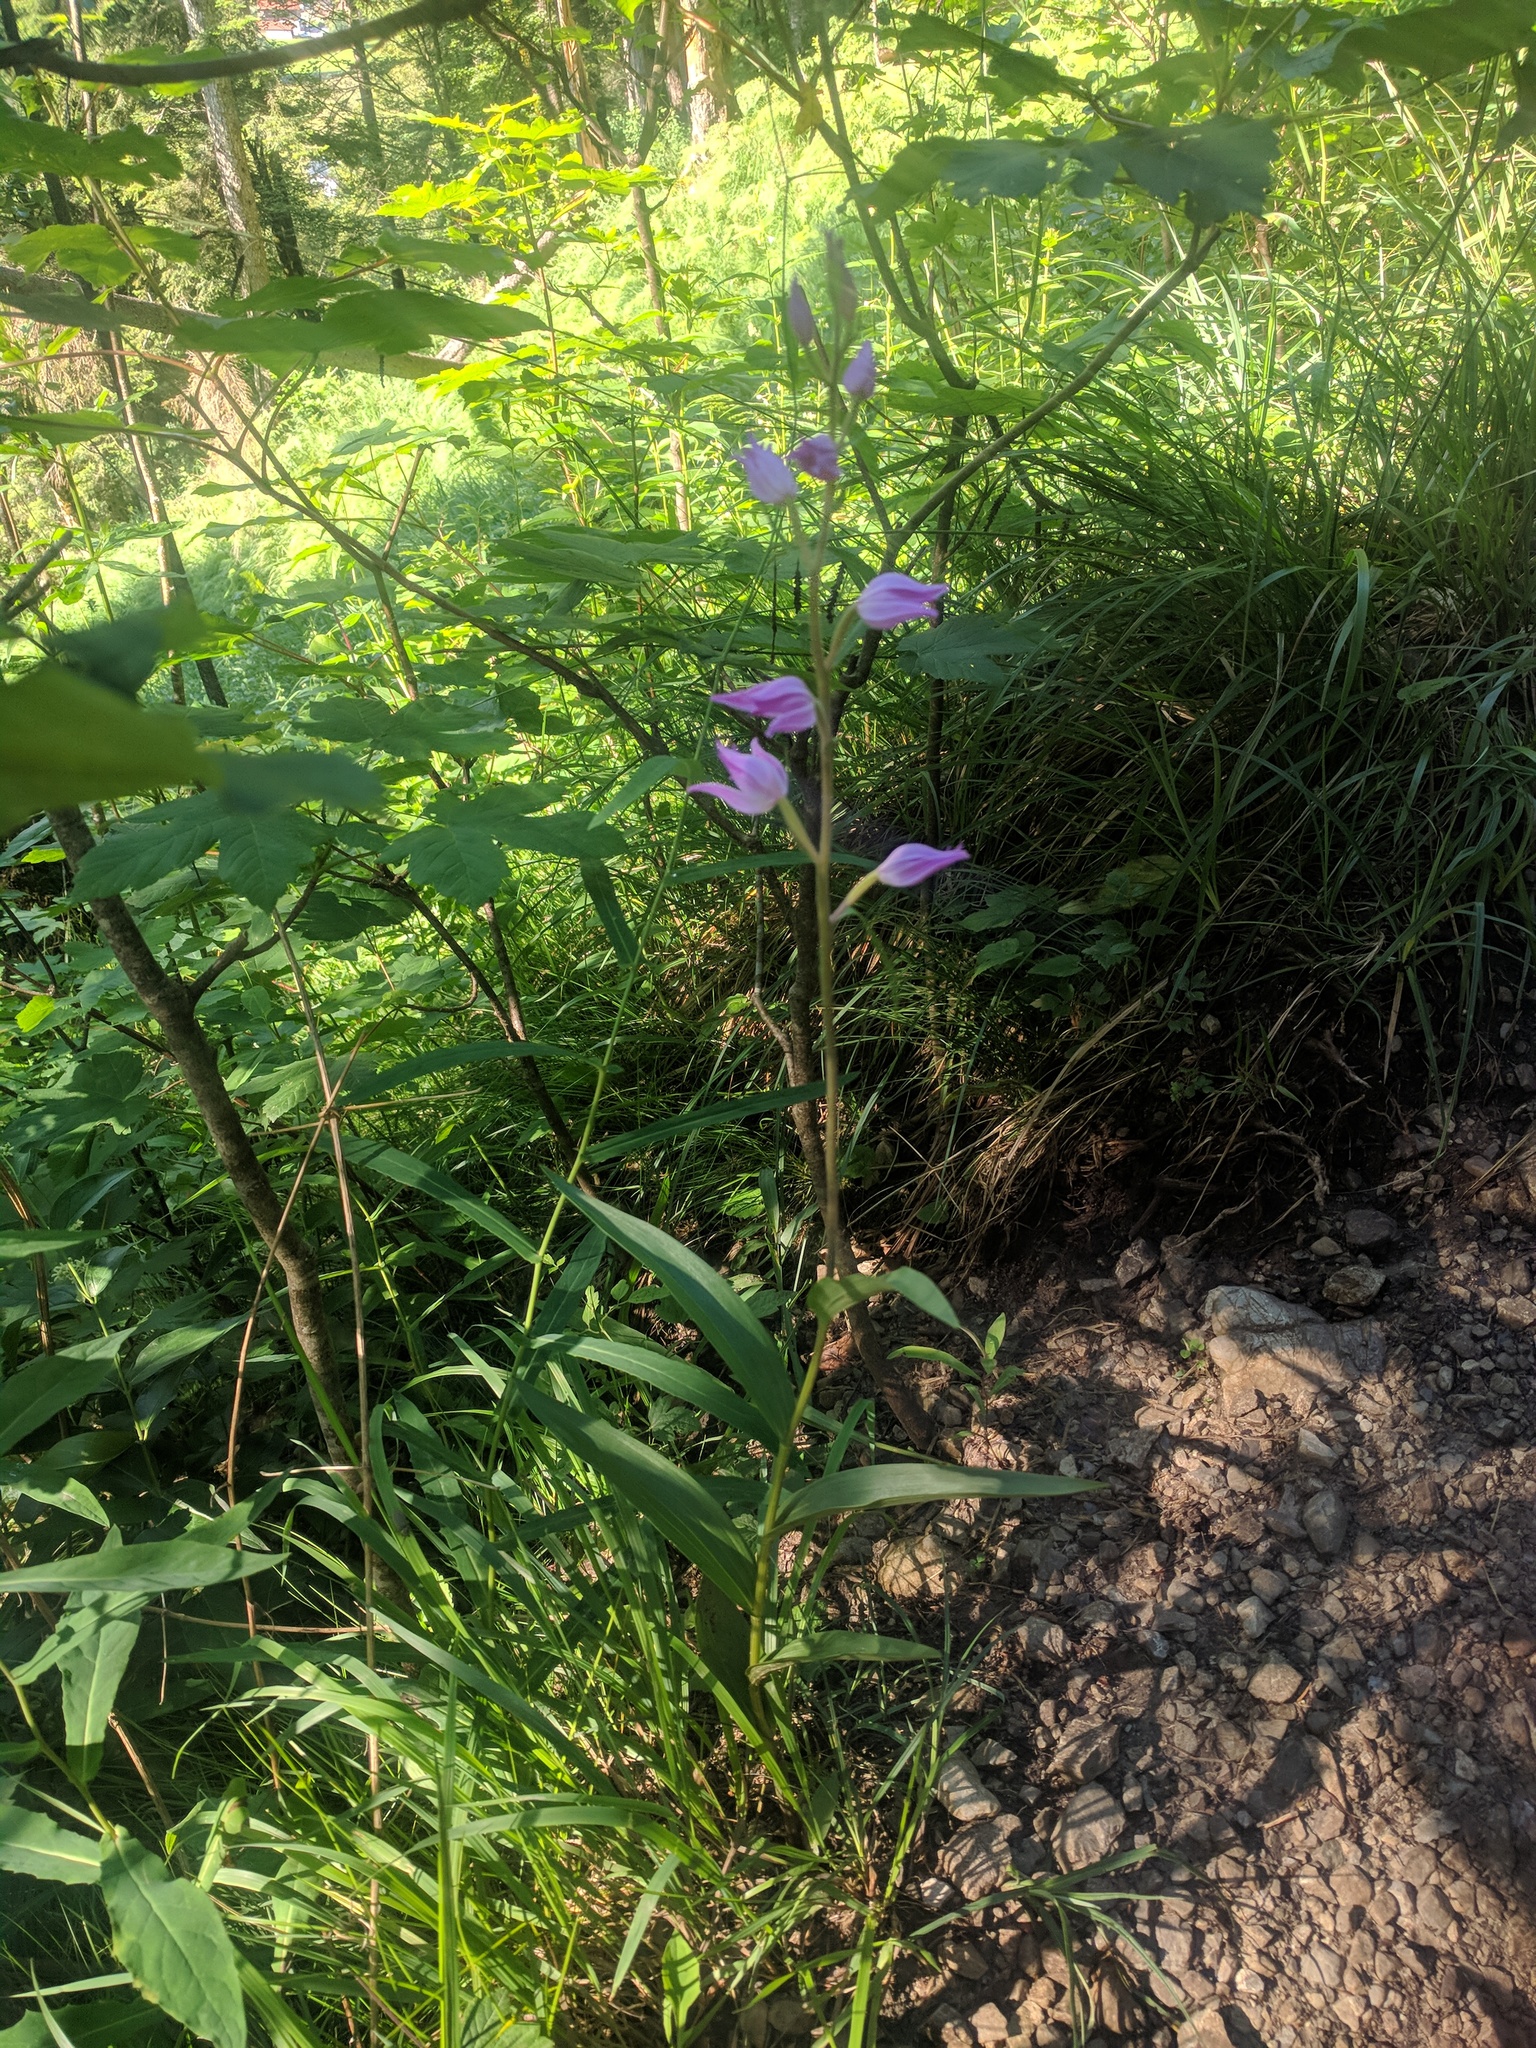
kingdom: Plantae
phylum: Tracheophyta
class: Liliopsida
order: Asparagales
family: Orchidaceae
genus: Cephalanthera
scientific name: Cephalanthera rubra
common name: Red helleborine
